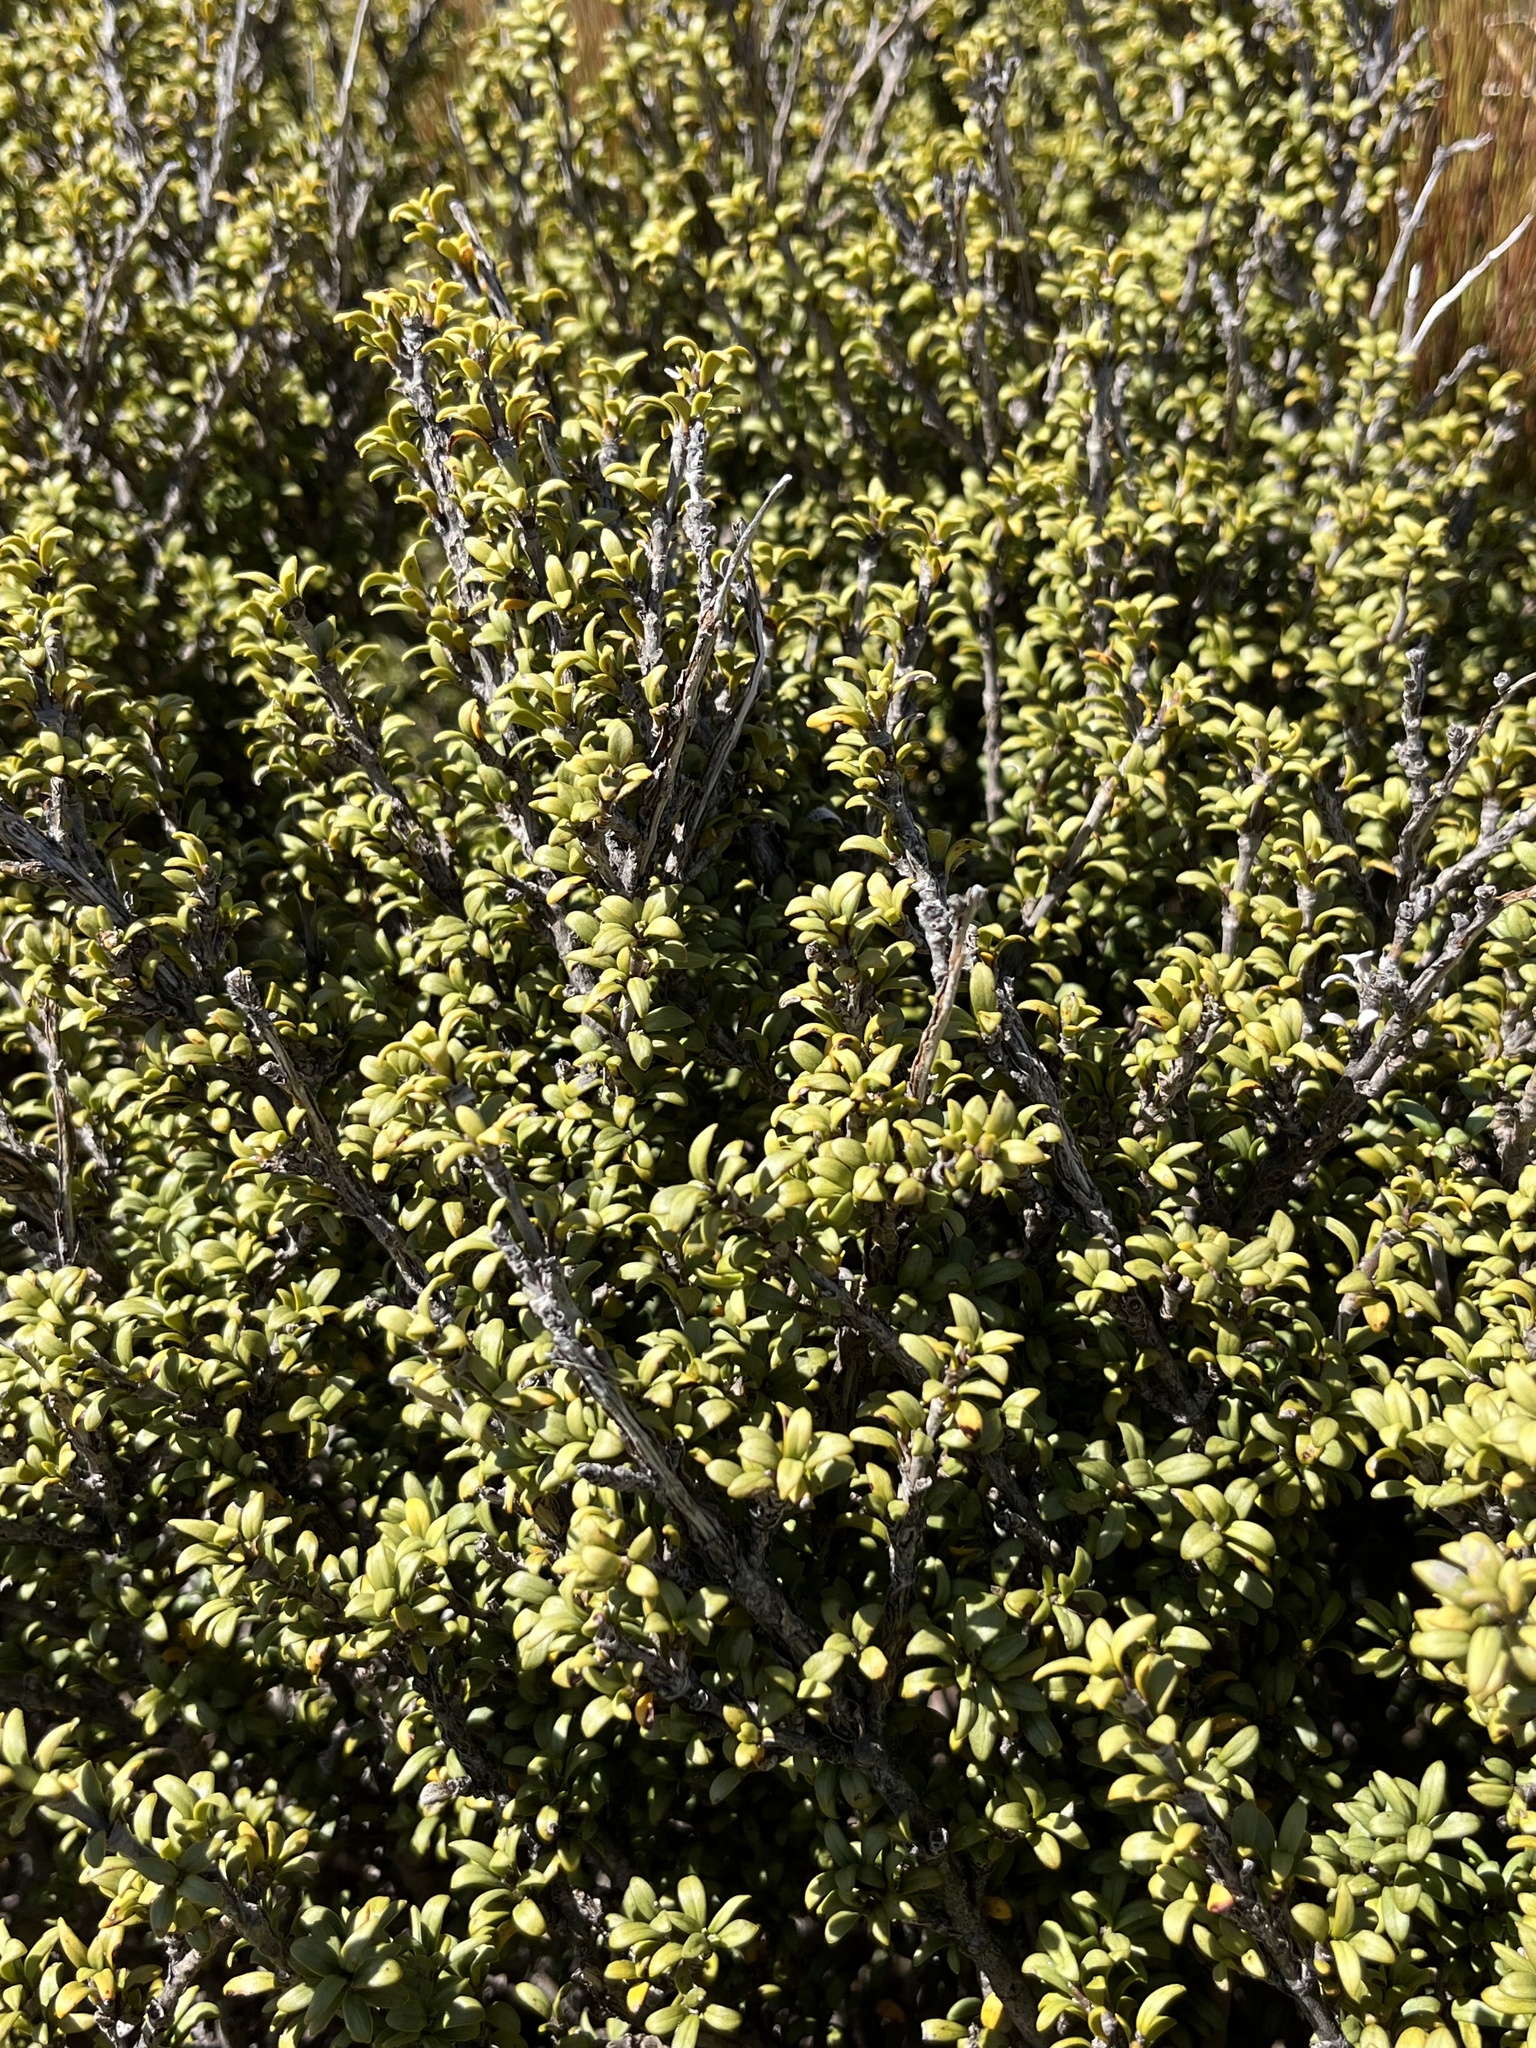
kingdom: Plantae
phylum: Tracheophyta
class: Magnoliopsida
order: Gentianales
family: Rubiaceae
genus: Coprosma
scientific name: Coprosma pseudocuneata
